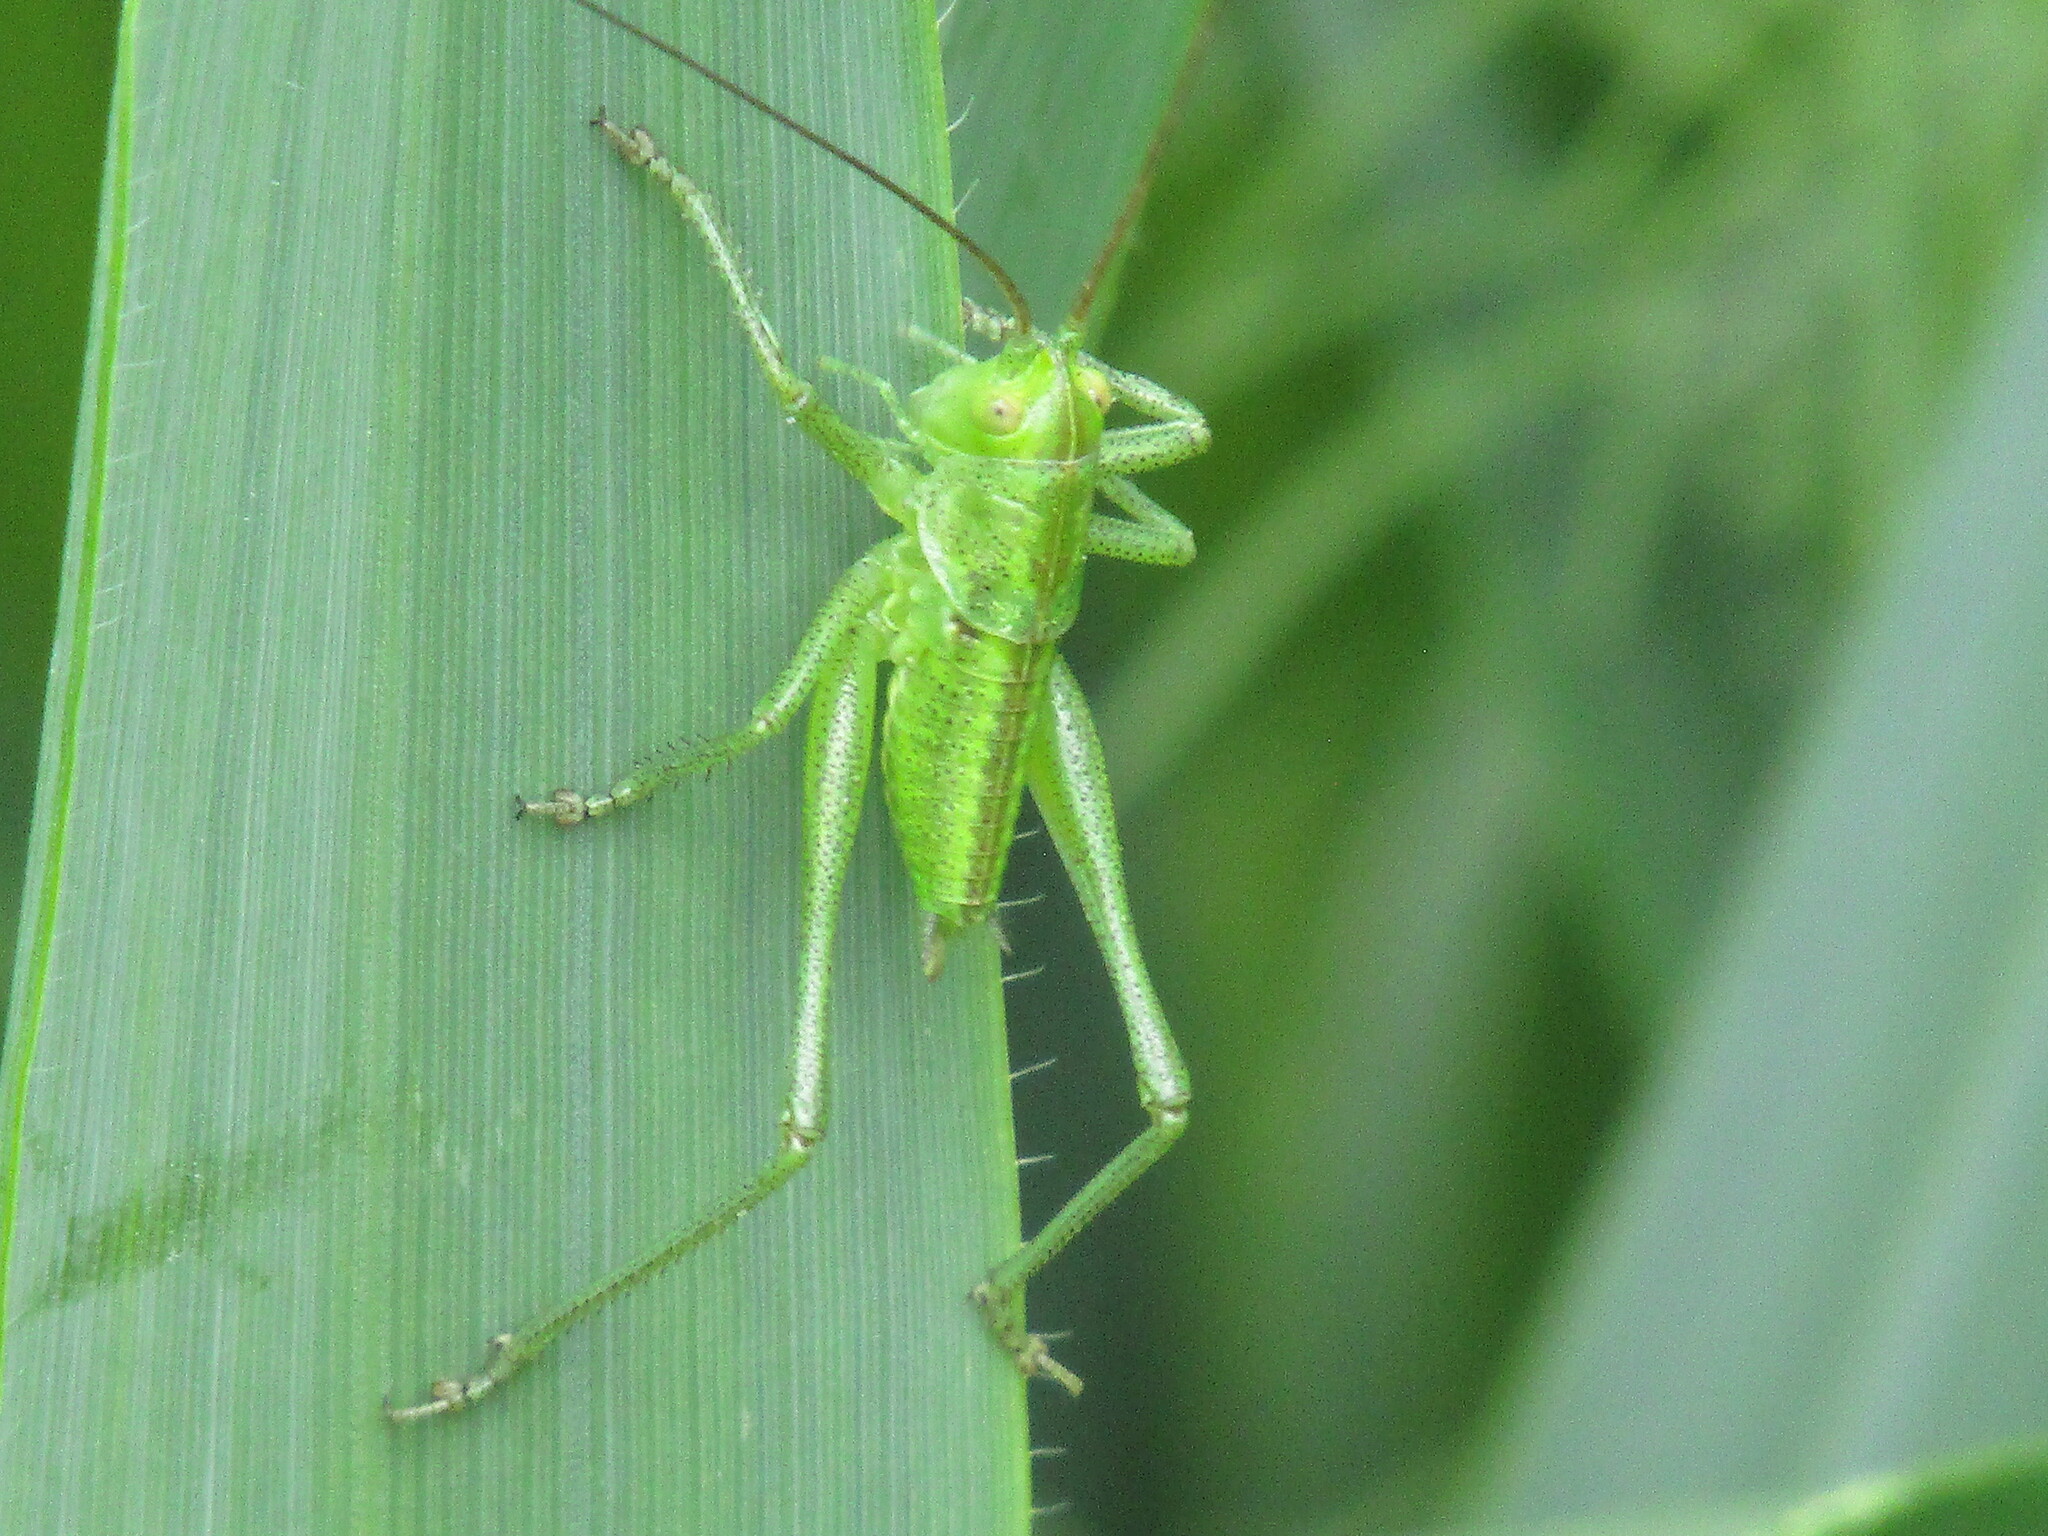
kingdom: Animalia
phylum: Arthropoda
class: Insecta
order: Orthoptera
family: Tettigoniidae
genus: Tettigonia
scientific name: Tettigonia viridissima
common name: Great green bush-cricket
